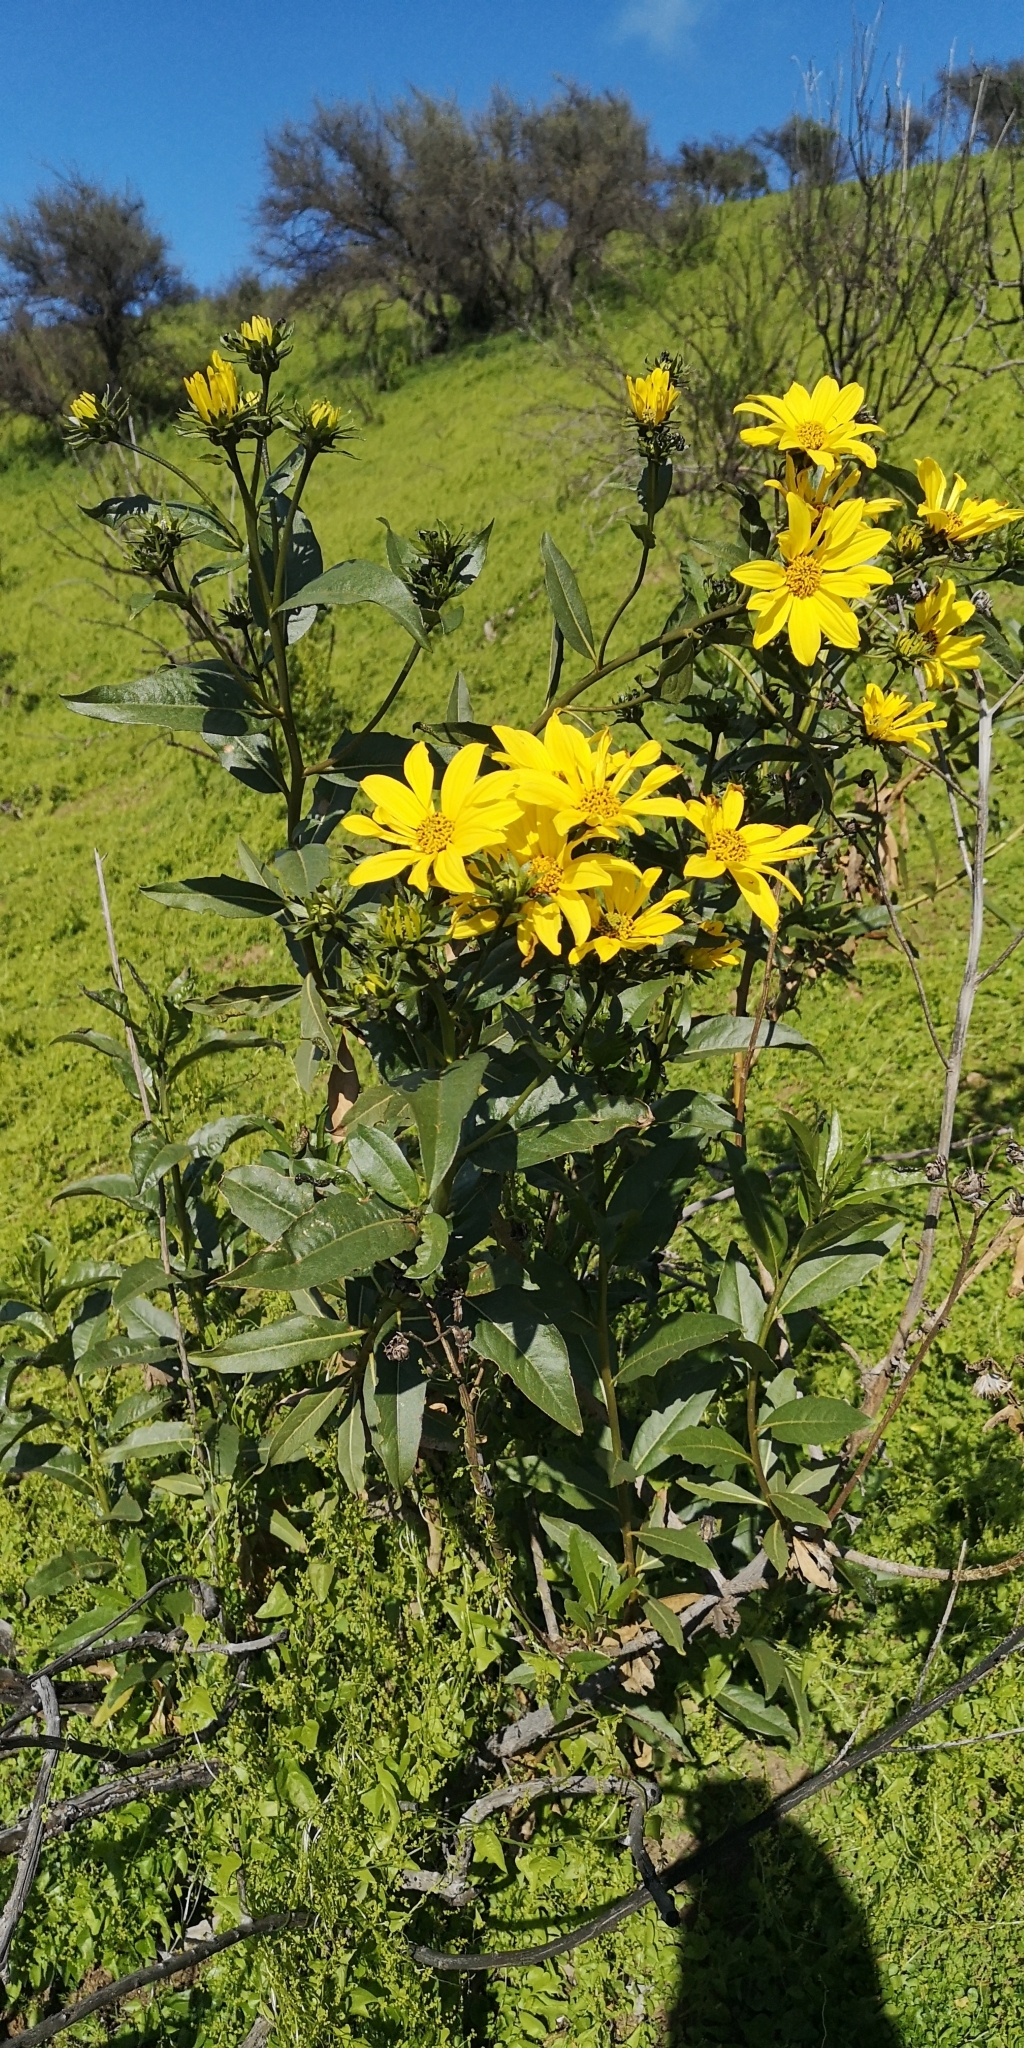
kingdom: Plantae
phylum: Tracheophyta
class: Magnoliopsida
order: Asterales
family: Asteraceae
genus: Flourensia
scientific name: Flourensia thurifera
